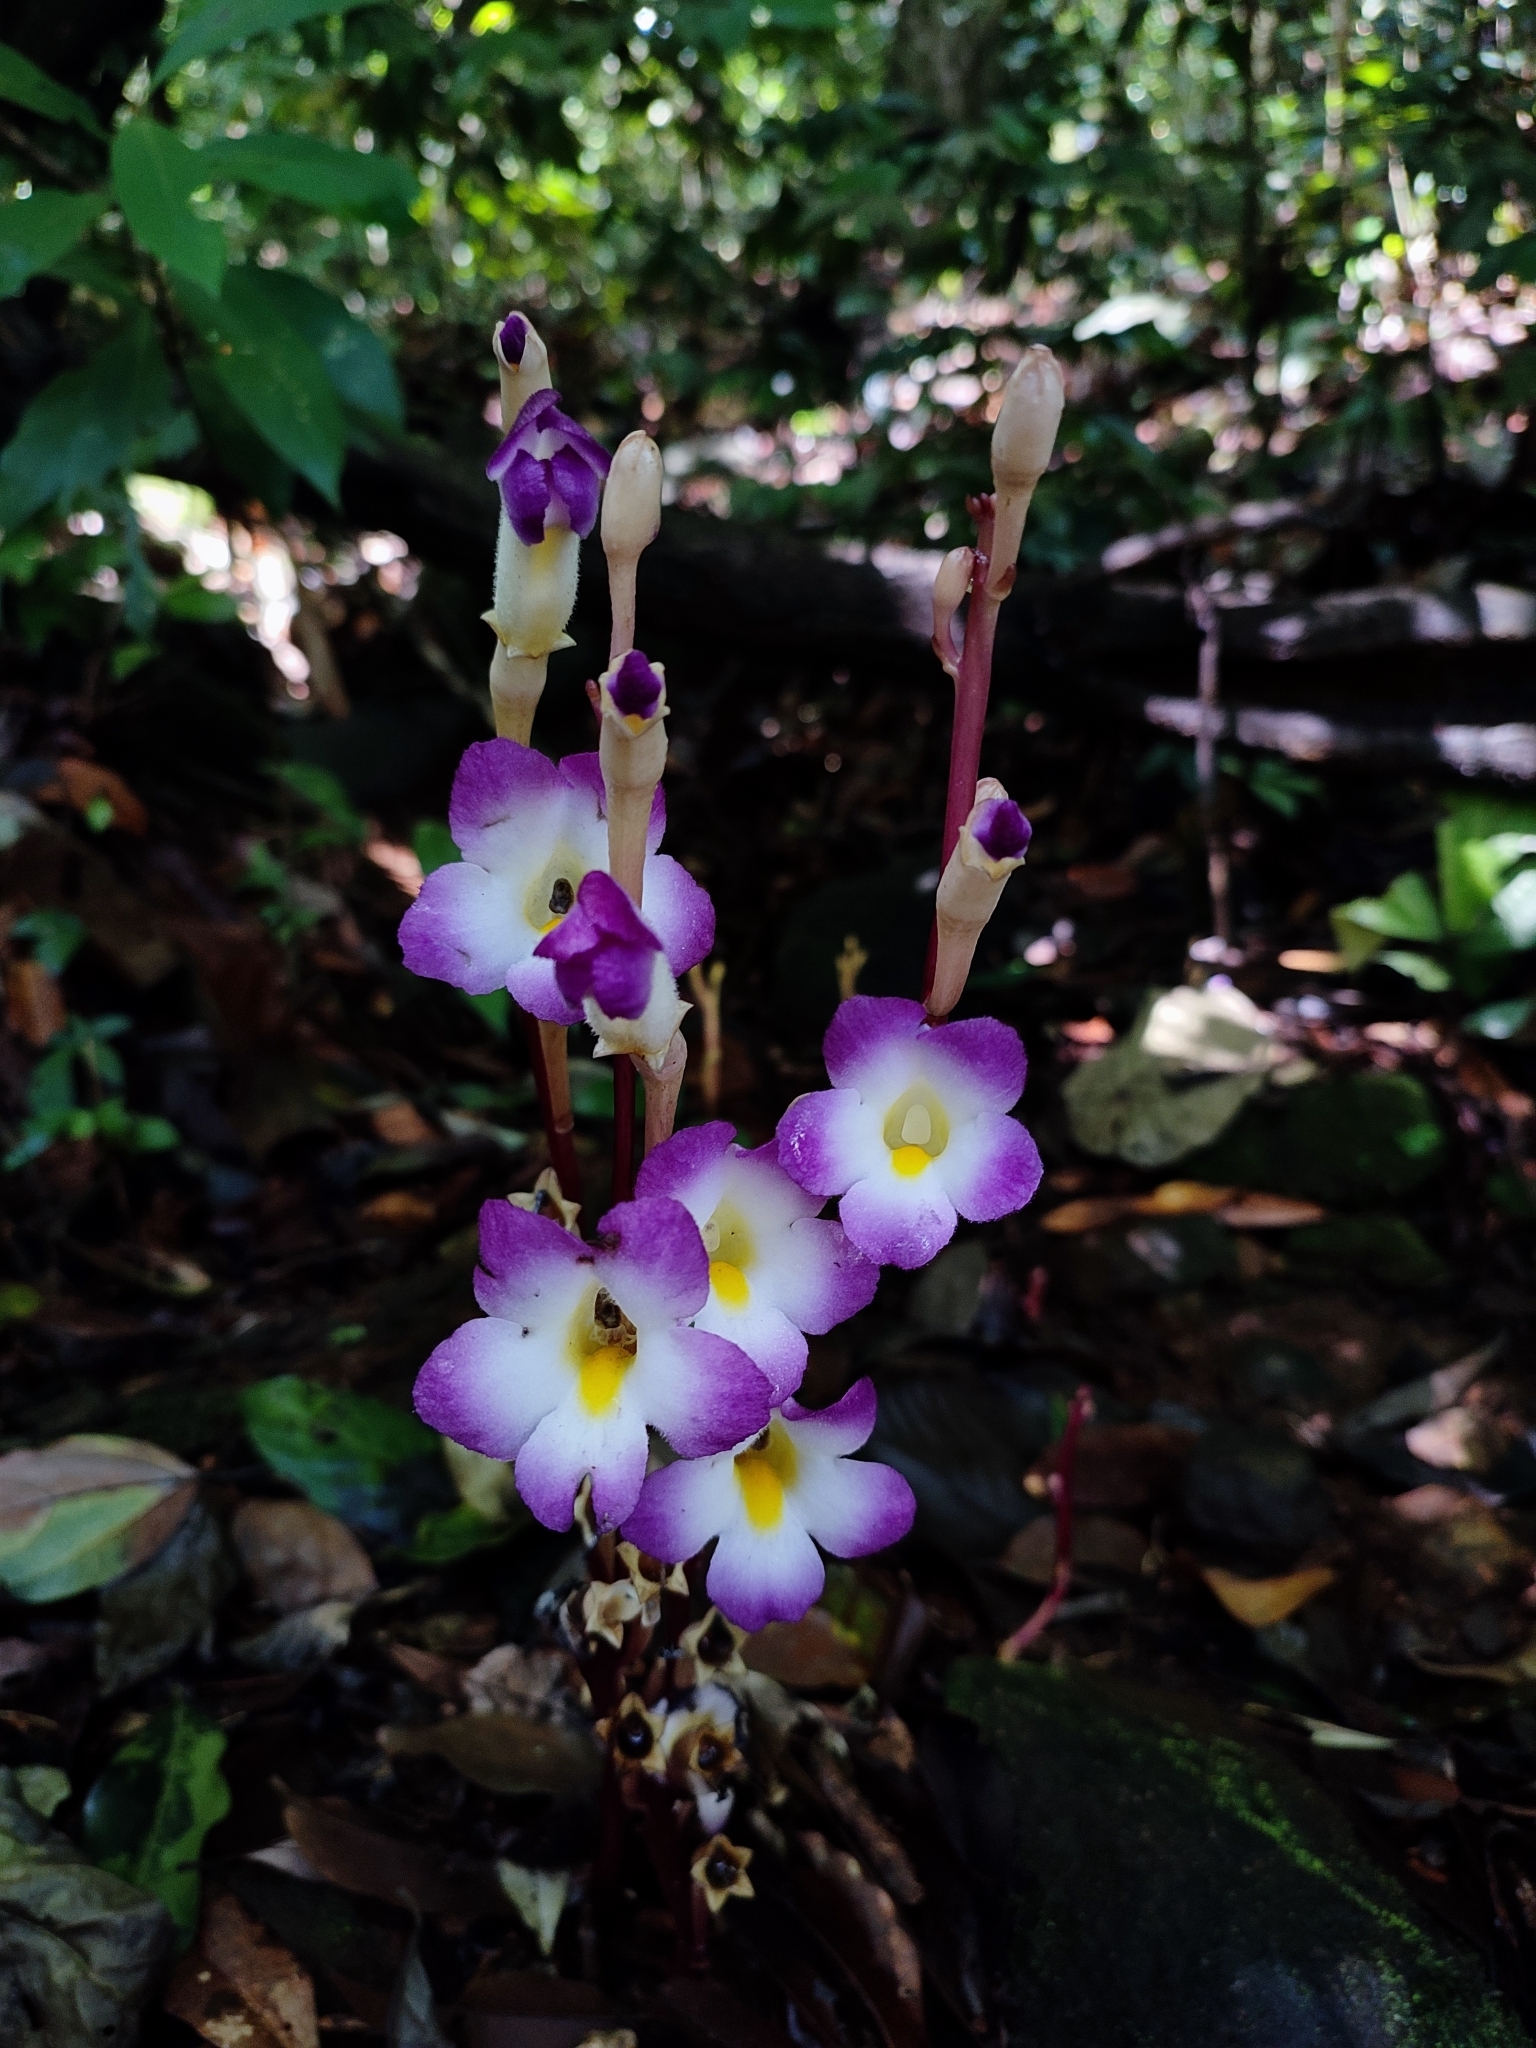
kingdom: Plantae
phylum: Tracheophyta
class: Magnoliopsida
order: Lamiales
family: Orobanchaceae
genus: Christisonia
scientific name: Christisonia tubulosa
